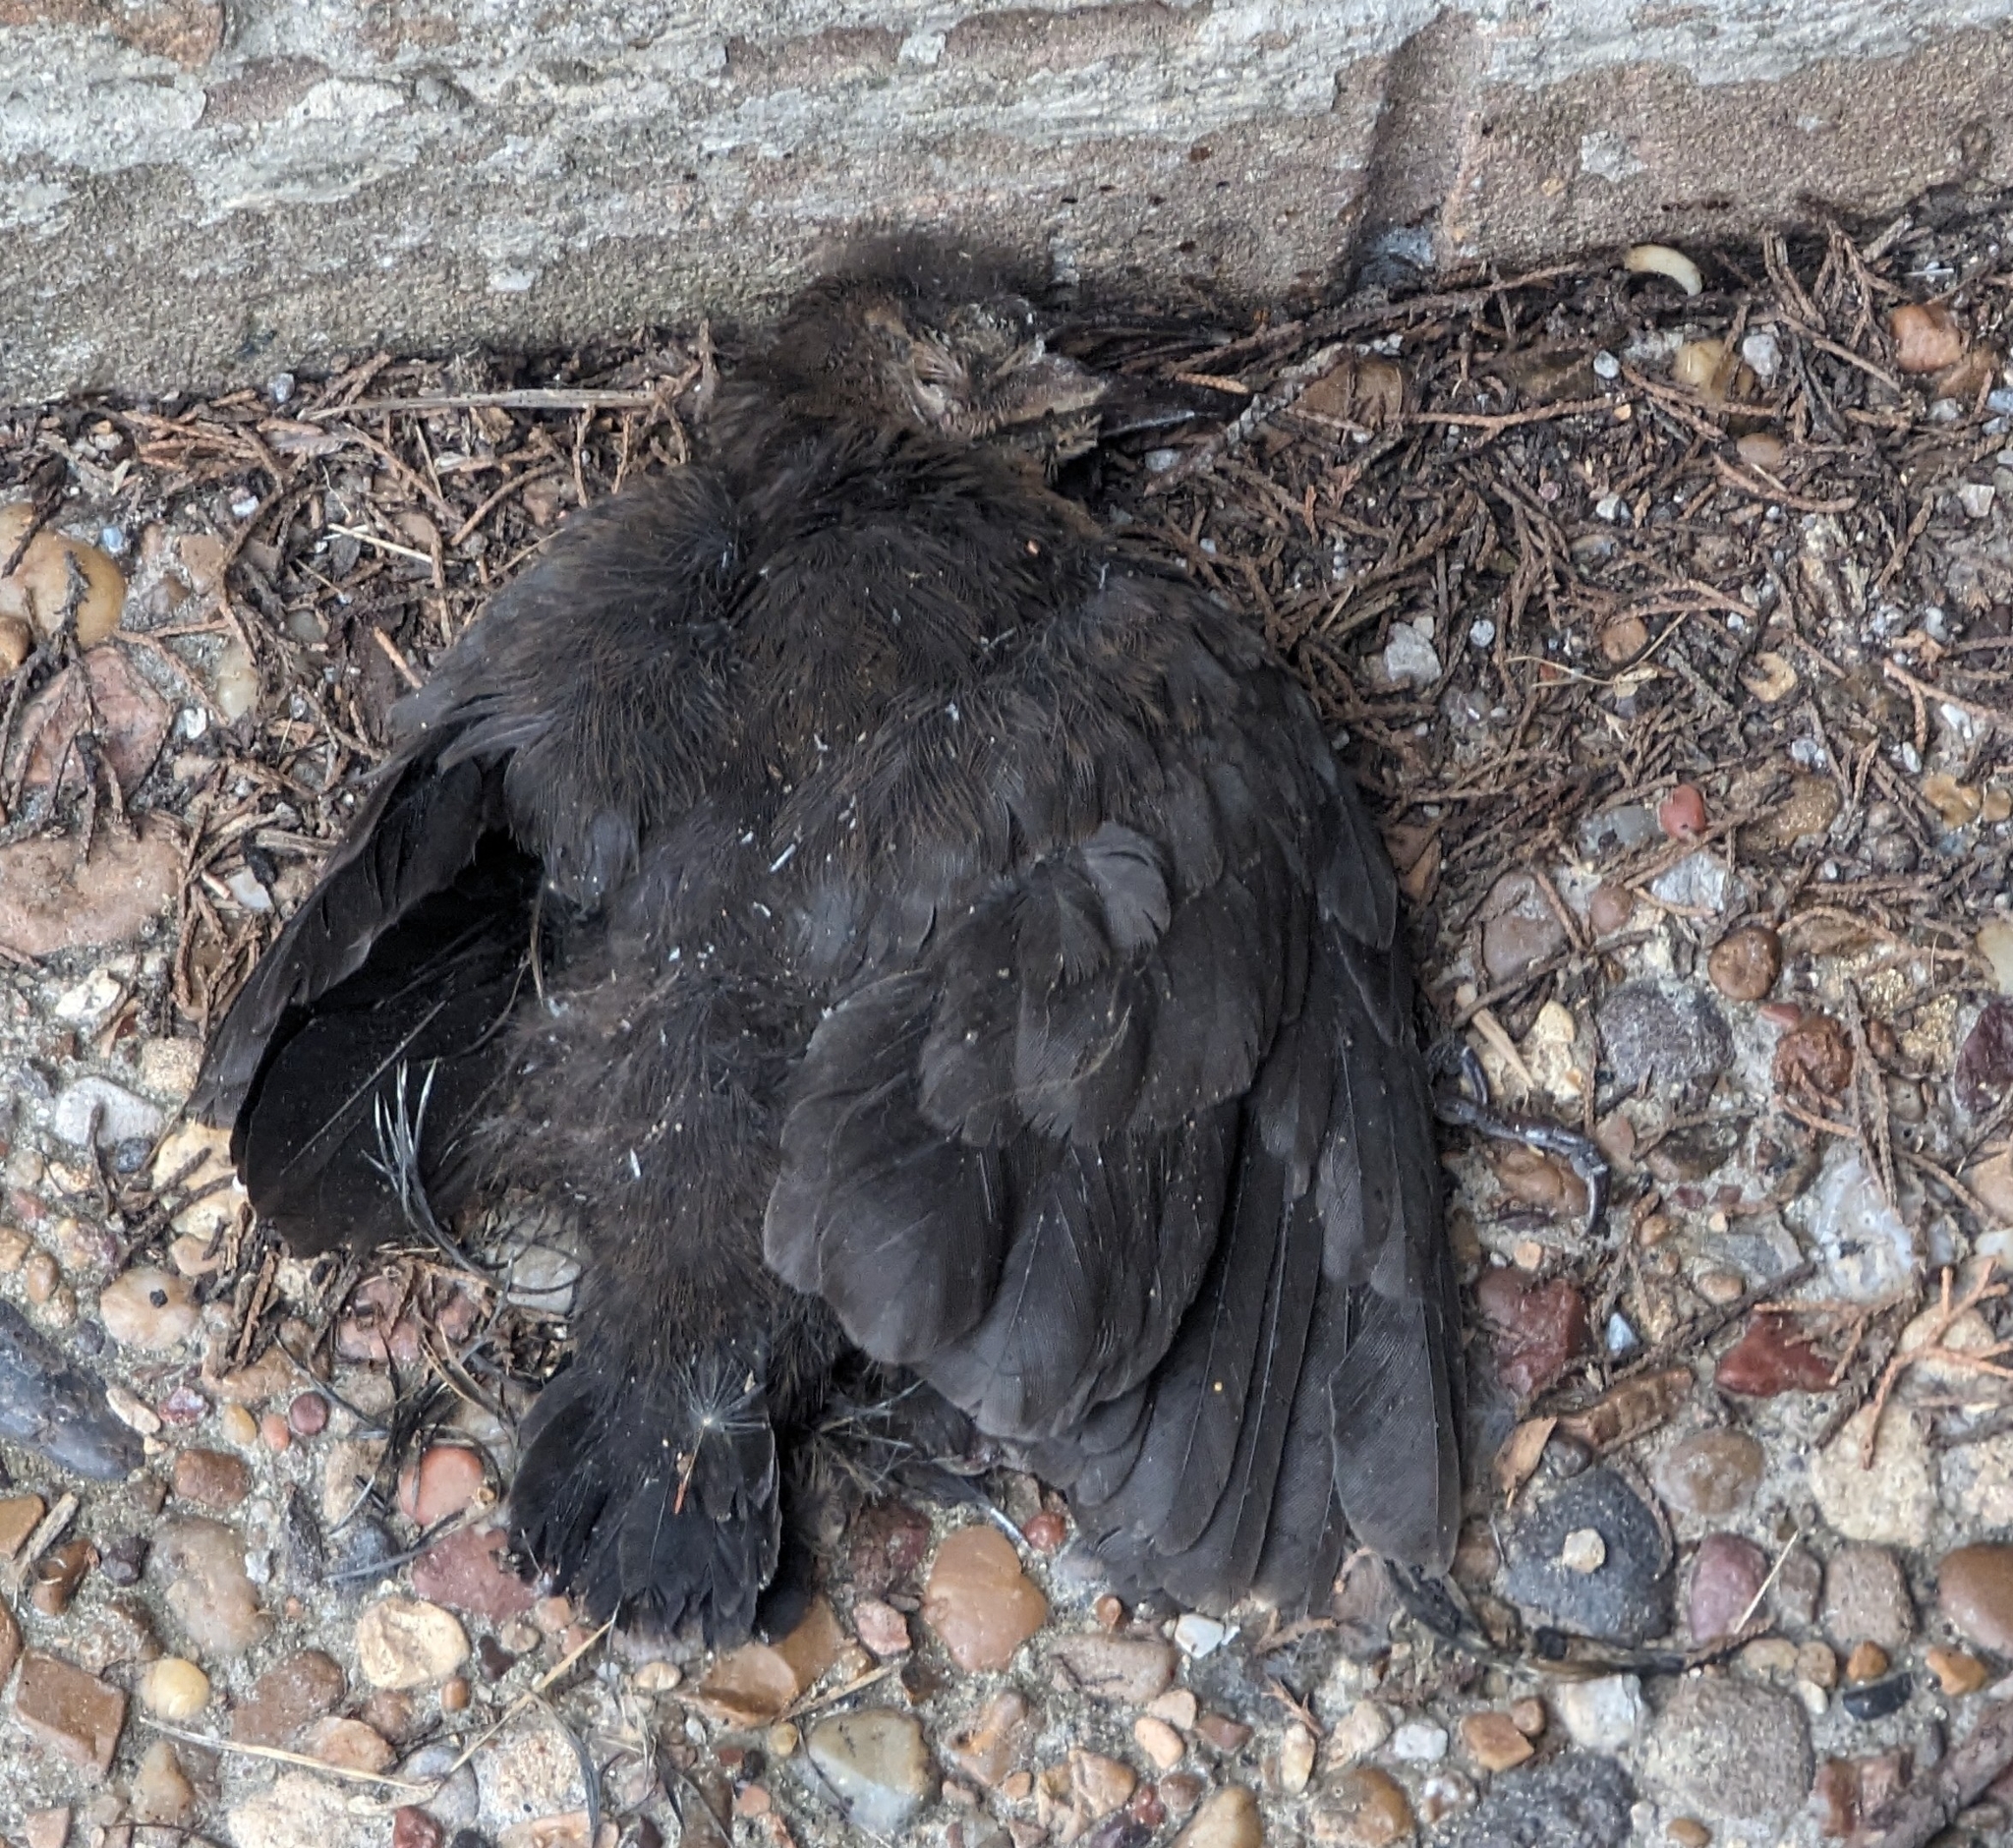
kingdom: Animalia
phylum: Chordata
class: Aves
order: Passeriformes
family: Icteridae
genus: Quiscalus
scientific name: Quiscalus mexicanus
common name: Great-tailed grackle
